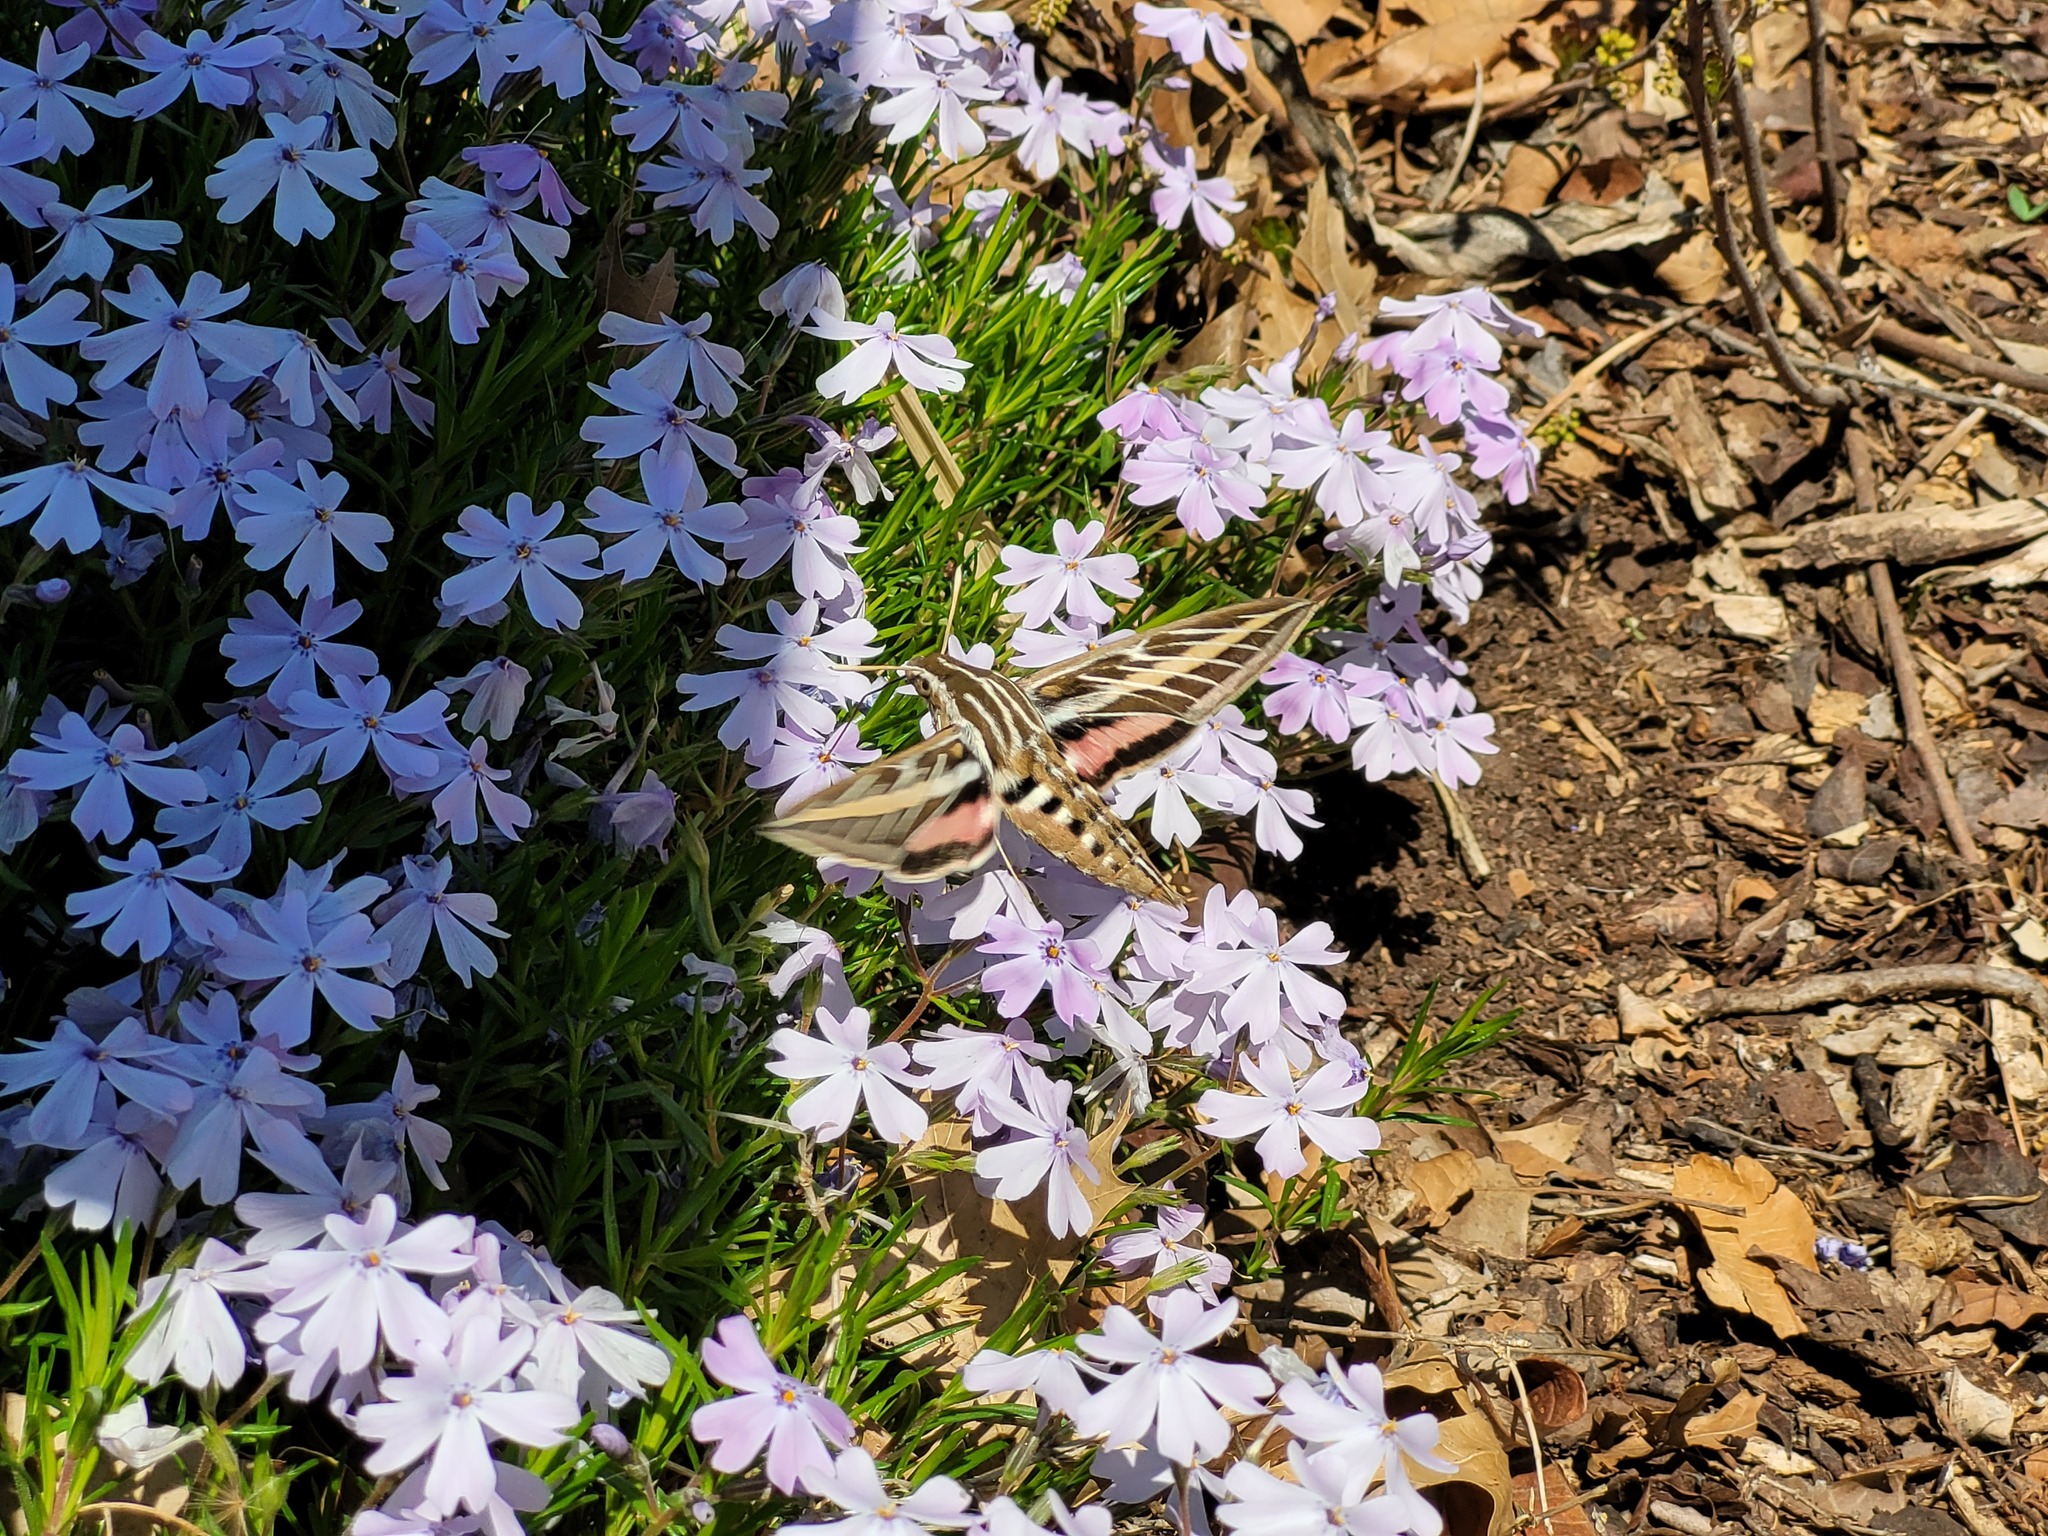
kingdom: Animalia
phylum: Arthropoda
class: Insecta
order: Lepidoptera
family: Sphingidae
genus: Hyles
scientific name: Hyles lineata
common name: White-lined sphinx
